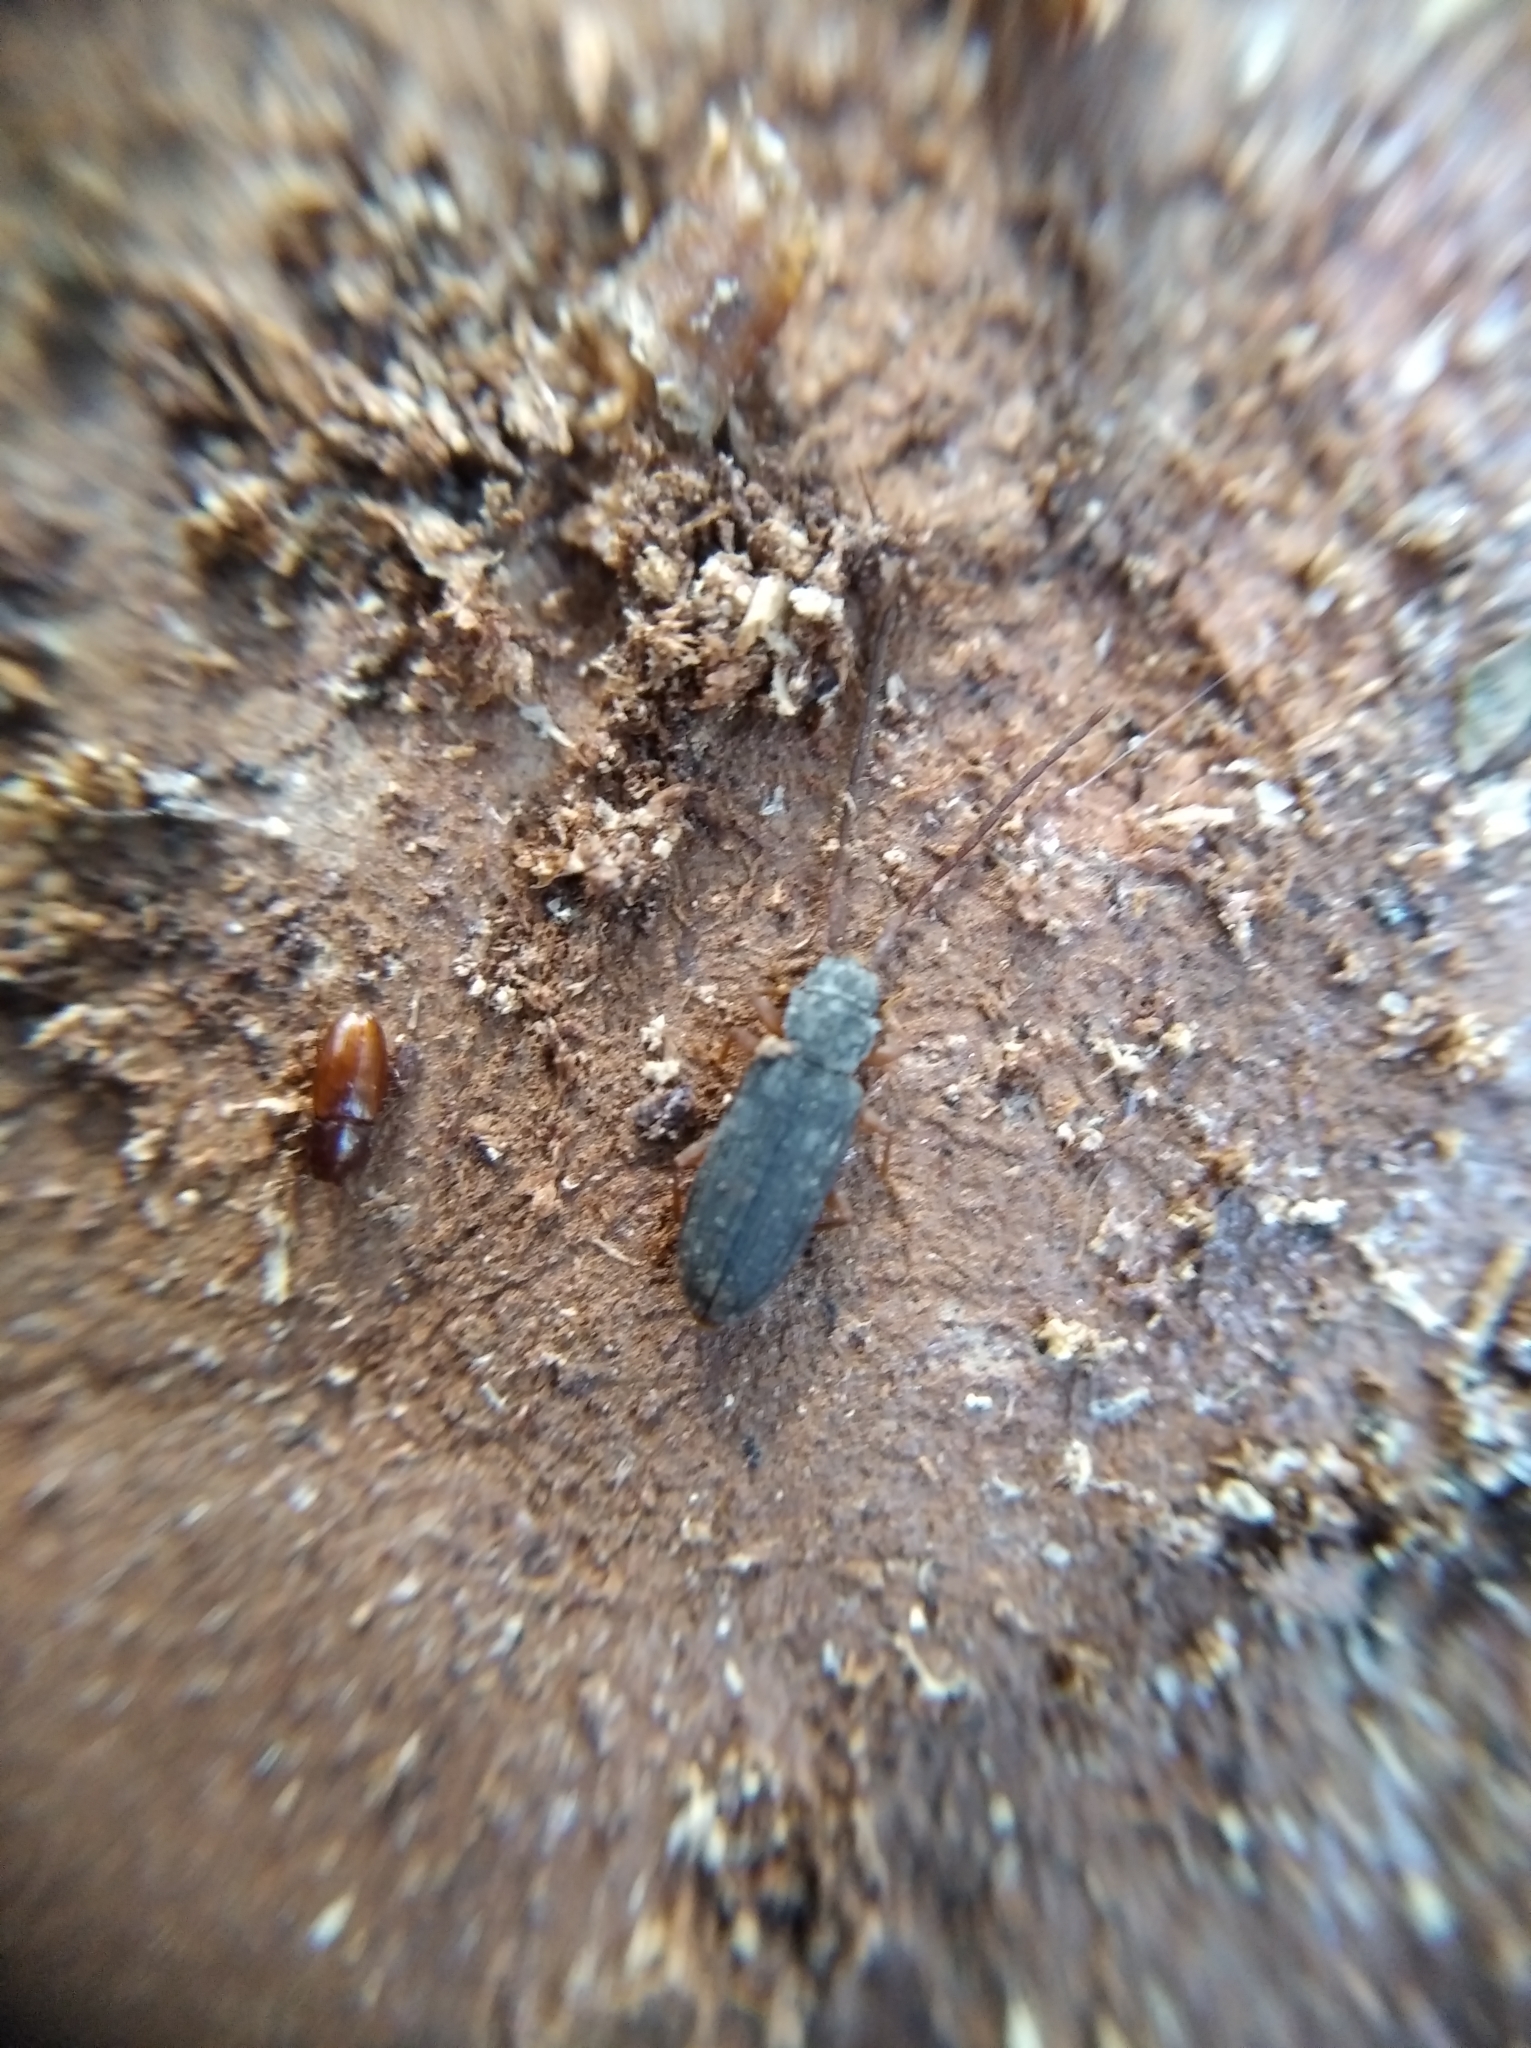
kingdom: Animalia
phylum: Arthropoda
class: Insecta
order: Coleoptera
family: Silvanidae
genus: Uleiota
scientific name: Uleiota planatus
